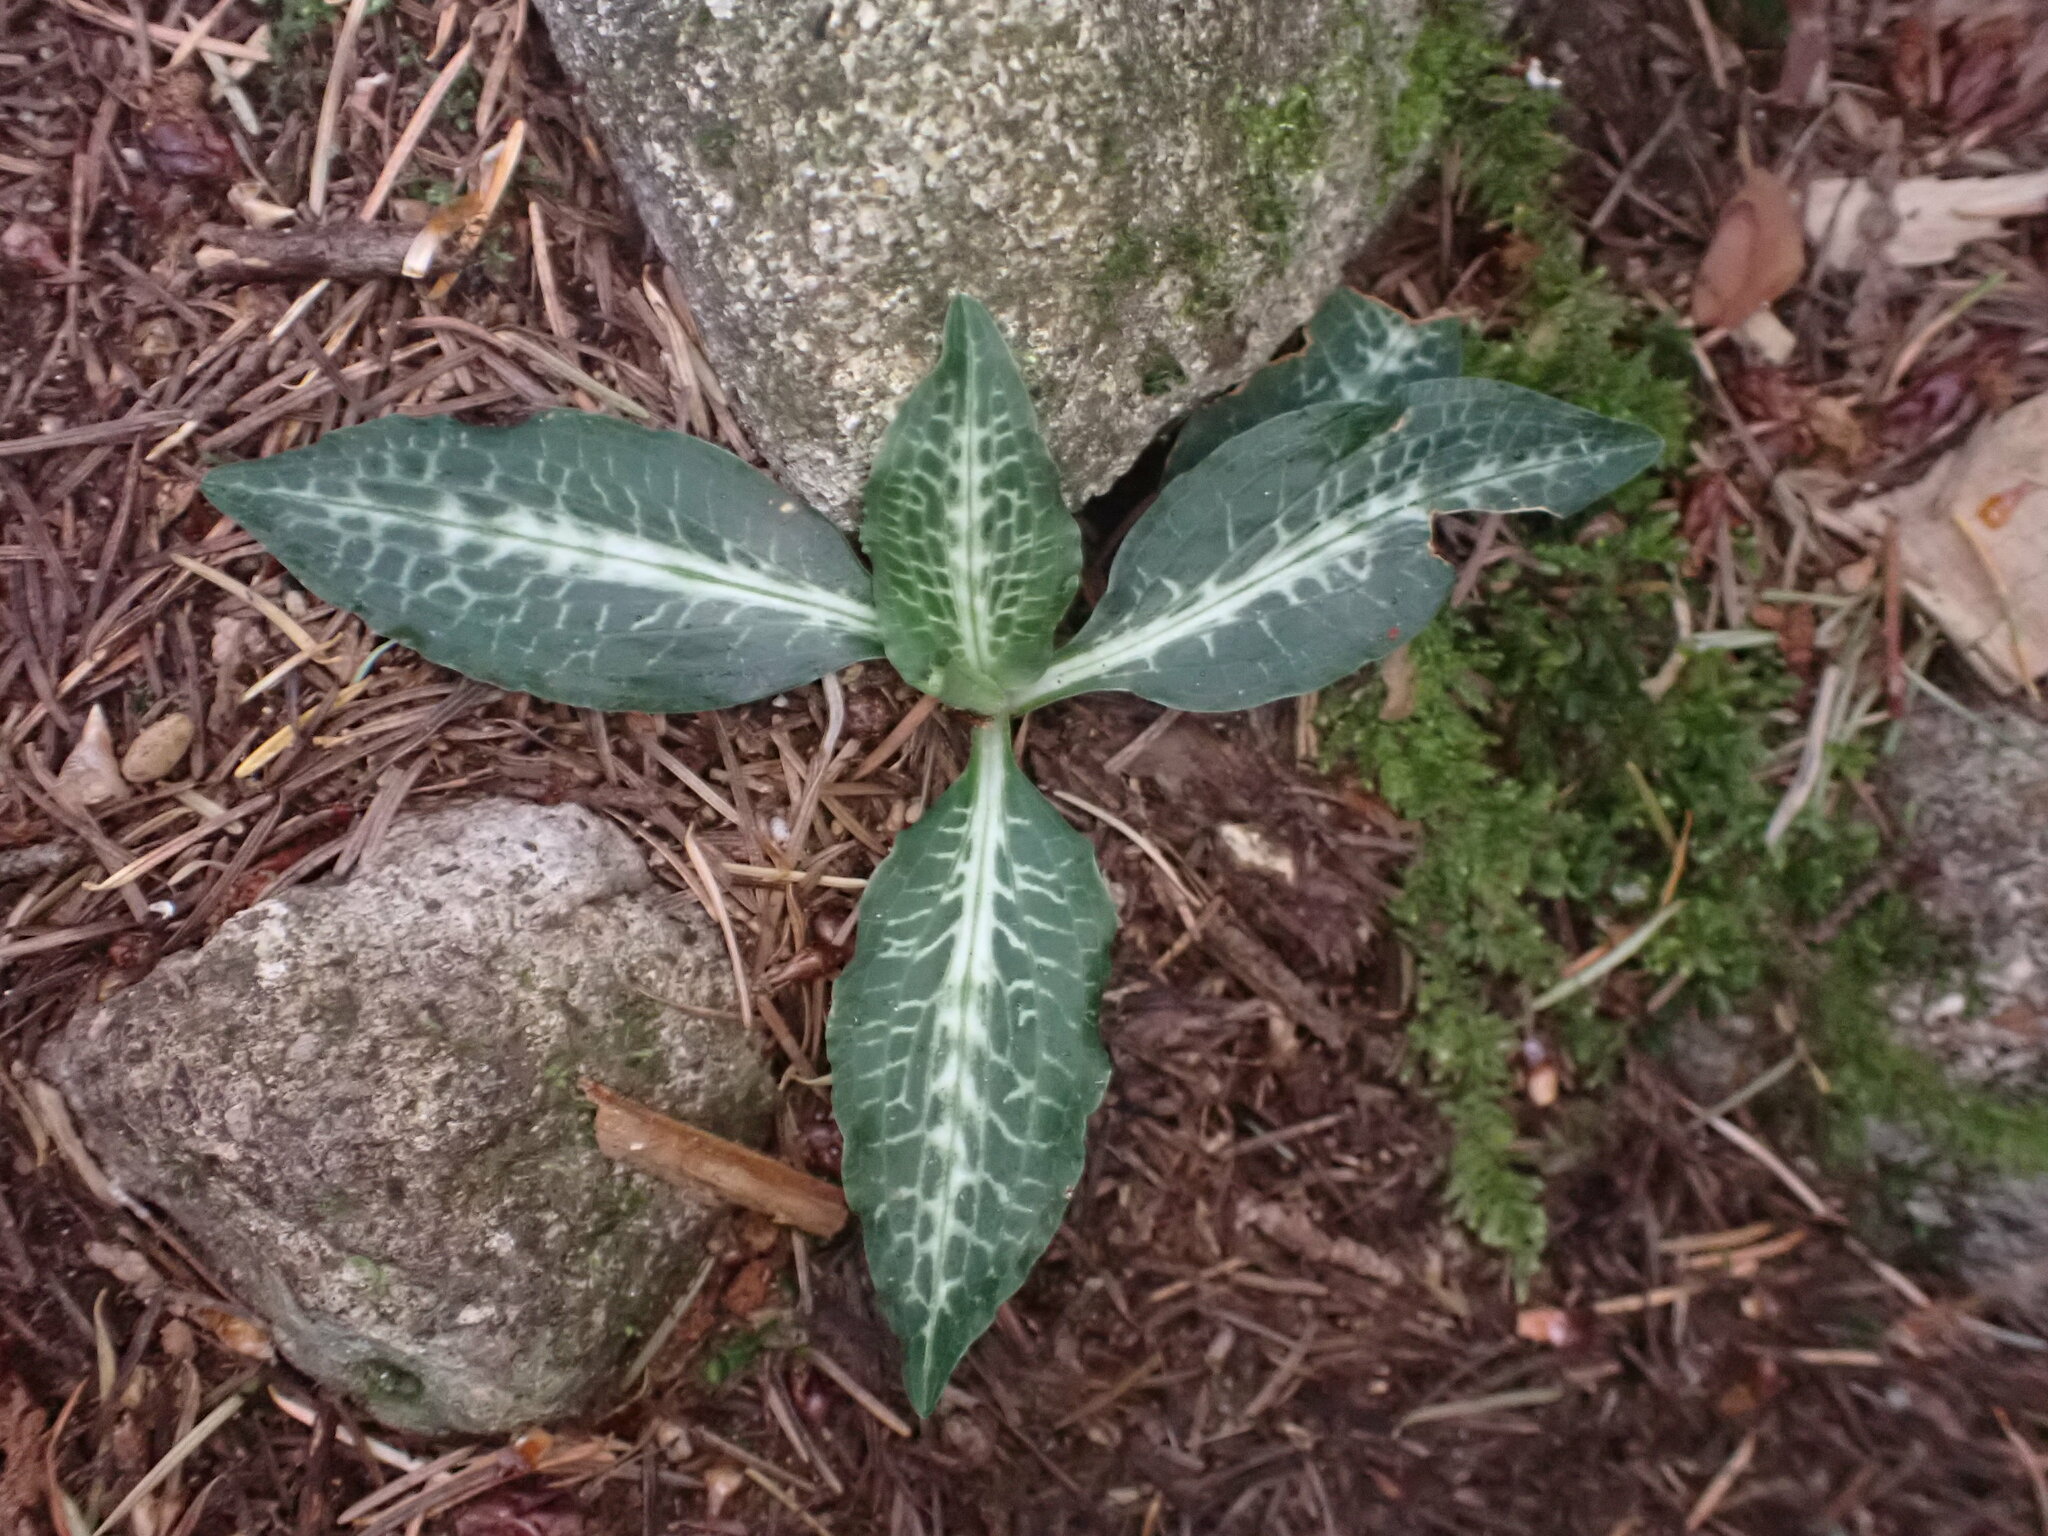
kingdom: Plantae
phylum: Tracheophyta
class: Liliopsida
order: Asparagales
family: Orchidaceae
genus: Goodyera
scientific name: Goodyera oblongifolia
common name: Giant rattlesnake-plantain
